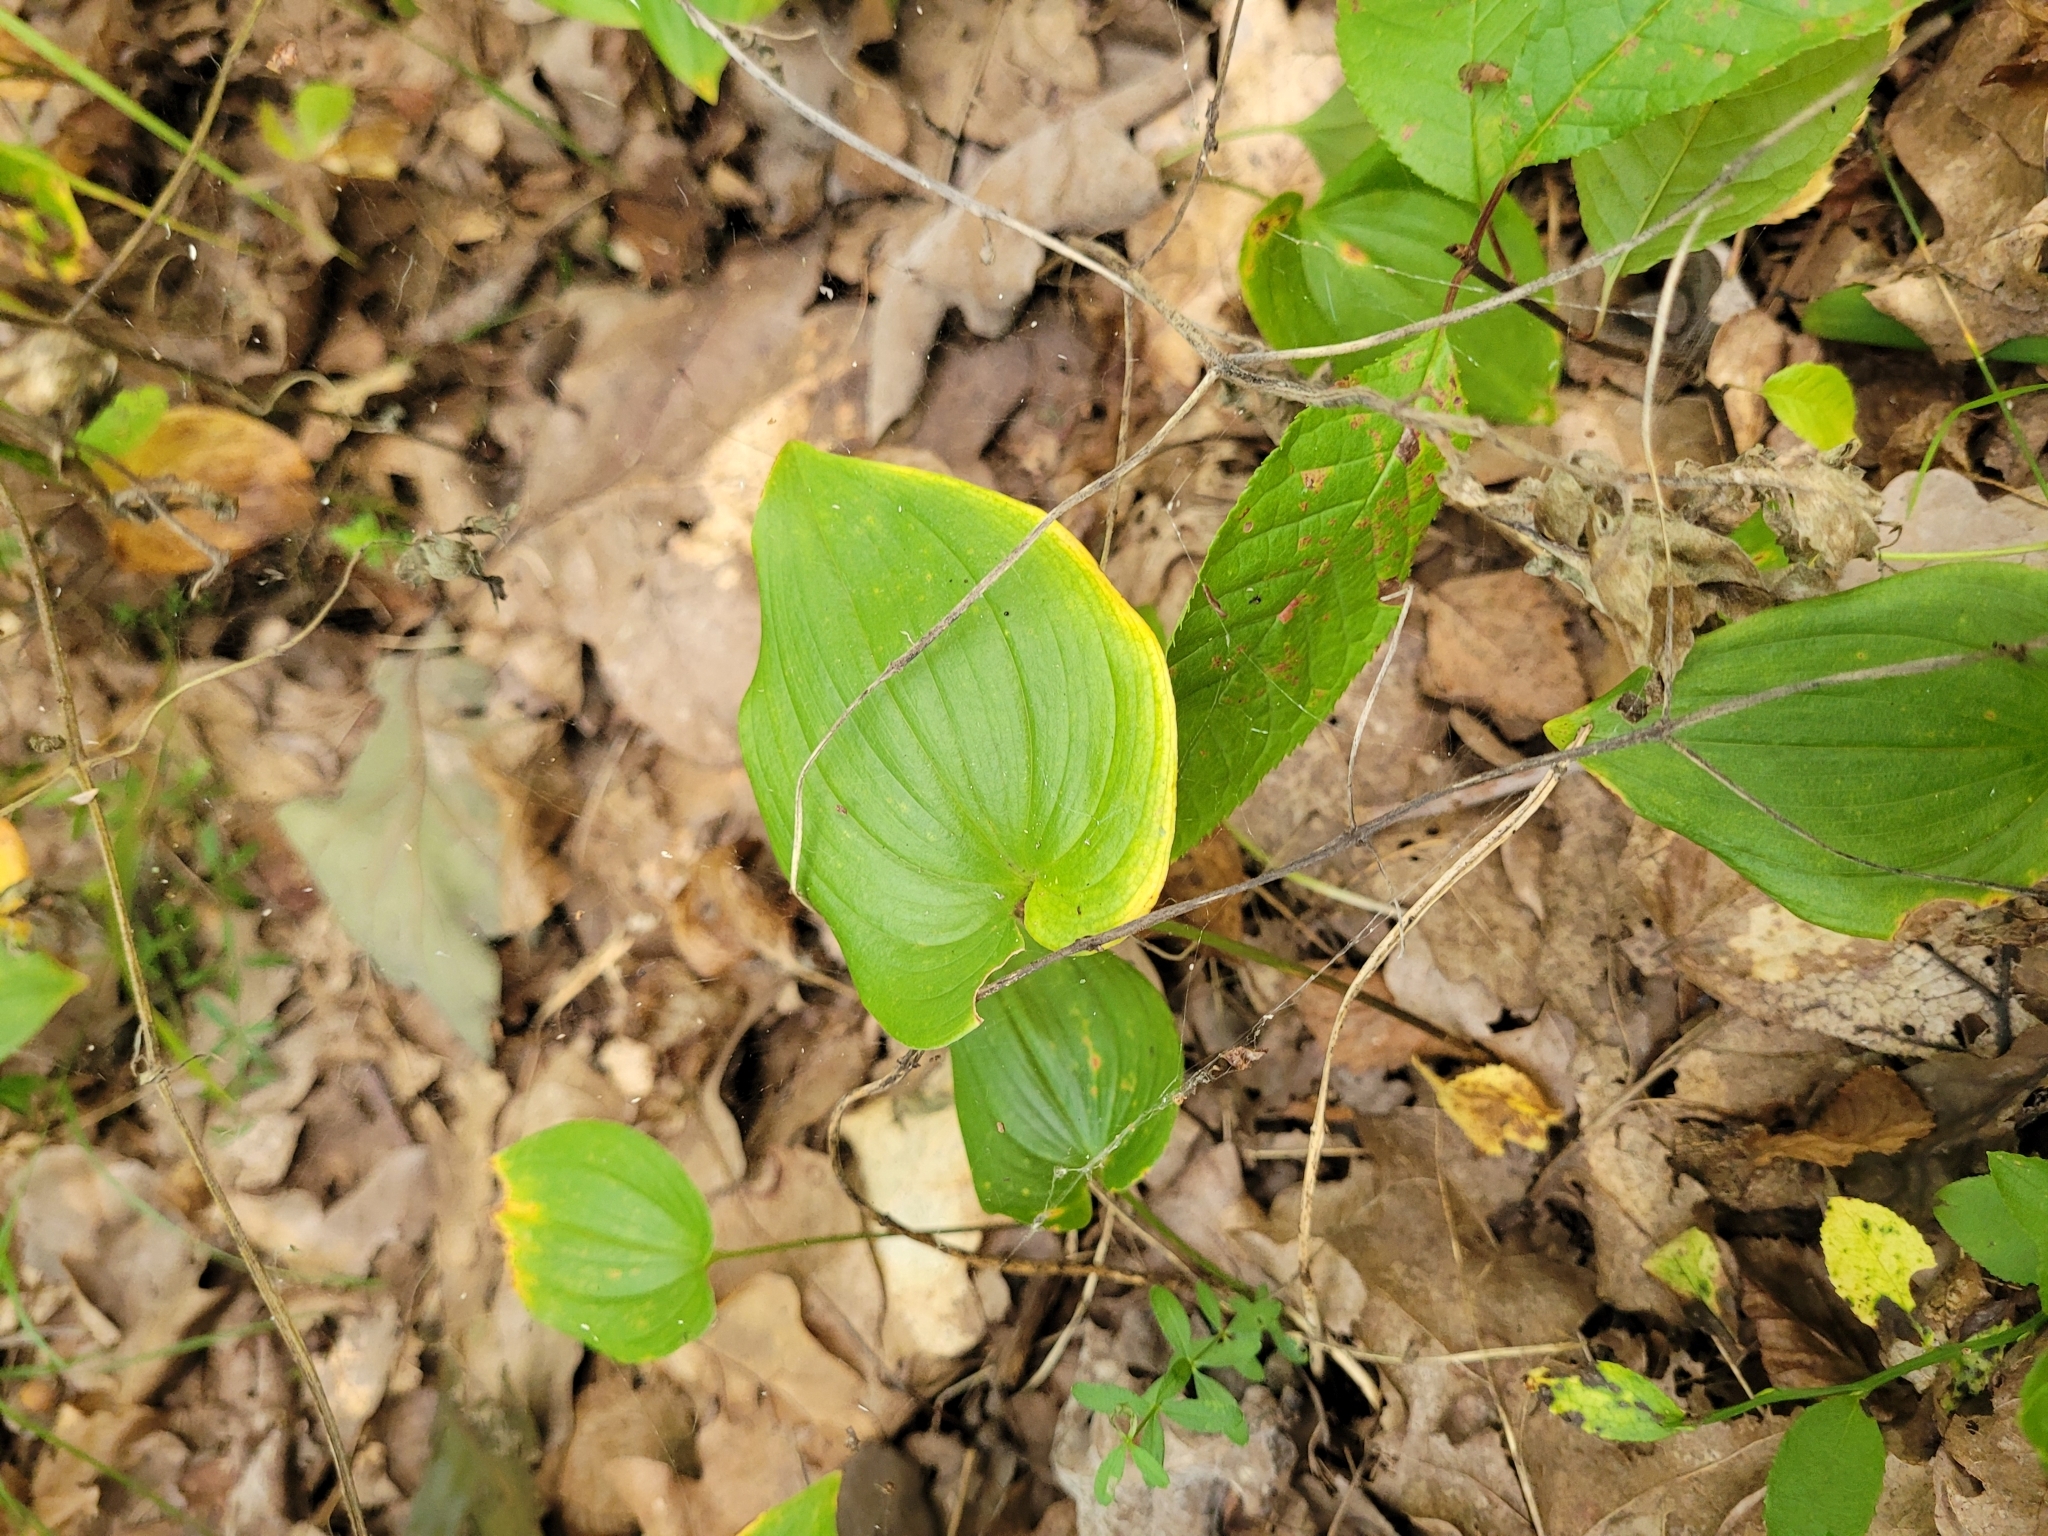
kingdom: Plantae
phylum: Tracheophyta
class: Liliopsida
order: Asparagales
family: Asparagaceae
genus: Maianthemum
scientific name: Maianthemum bifolium
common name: May lily
